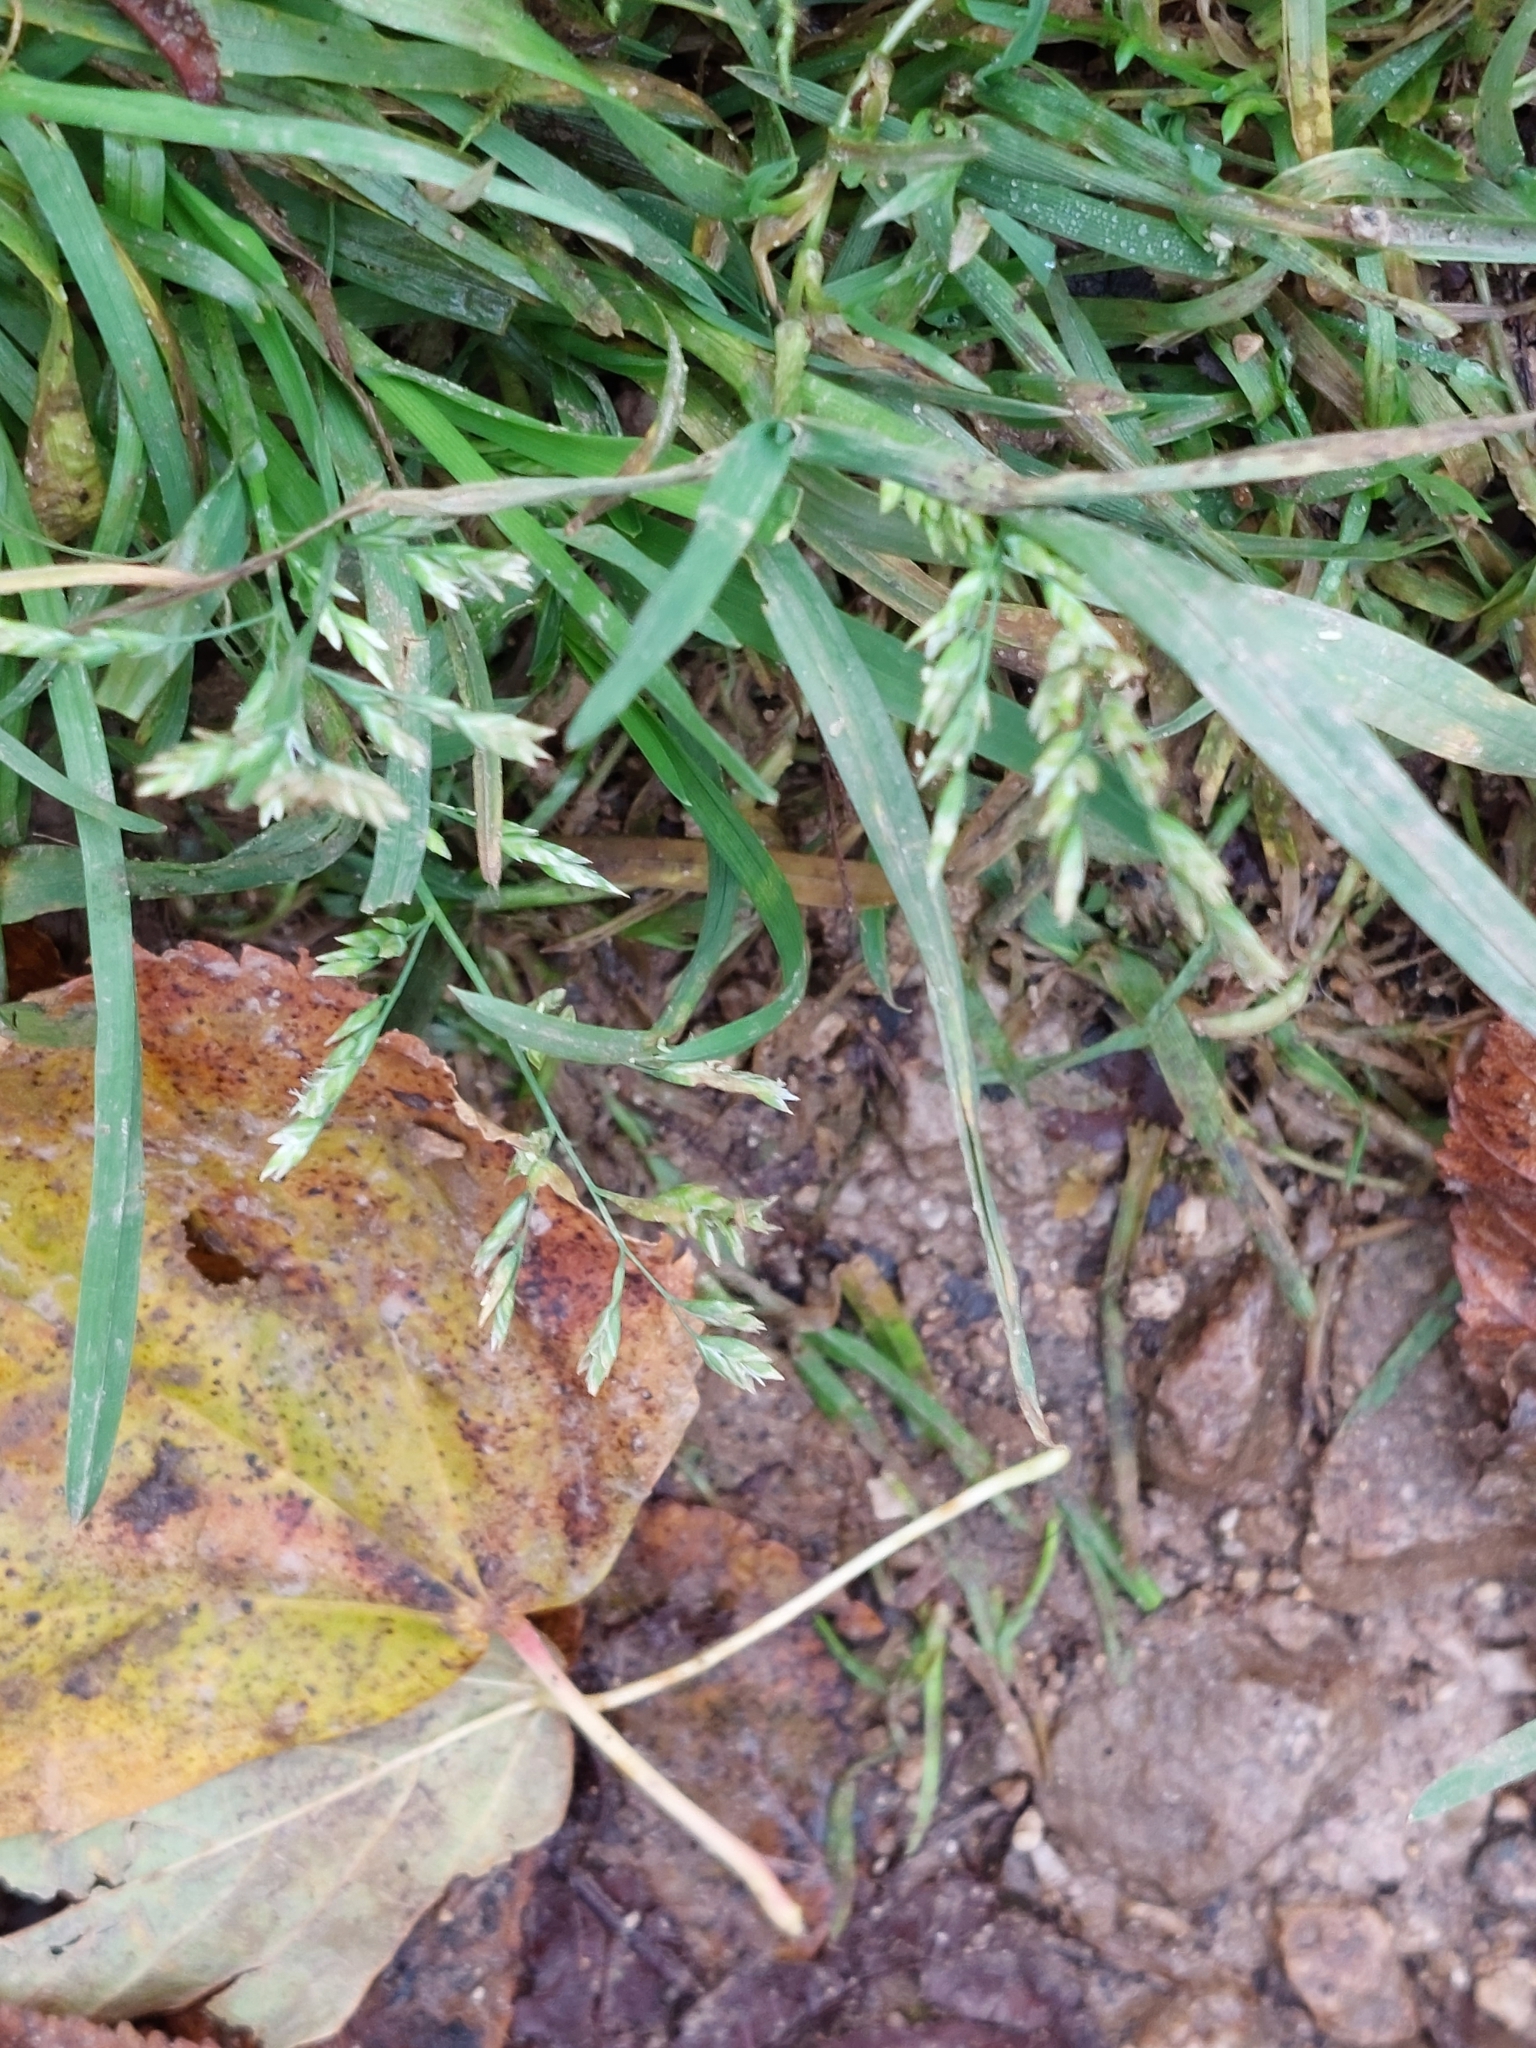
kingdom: Plantae
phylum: Tracheophyta
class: Liliopsida
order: Poales
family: Poaceae
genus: Poa
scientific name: Poa annua
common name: Annual bluegrass
